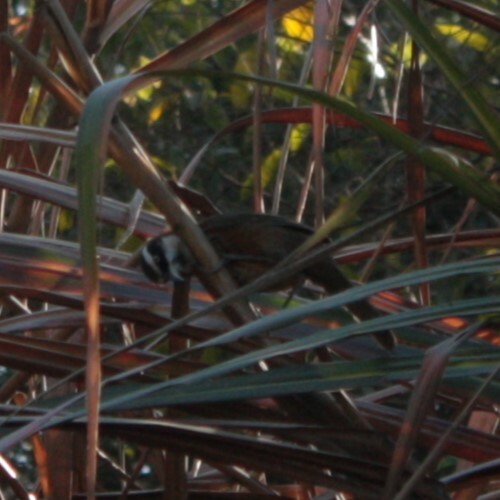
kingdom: Animalia
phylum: Chordata
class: Aves
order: Passeriformes
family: Timaliidae
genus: Pomatorhinus
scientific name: Pomatorhinus musicus
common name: Taiwan scimitar-babbler
